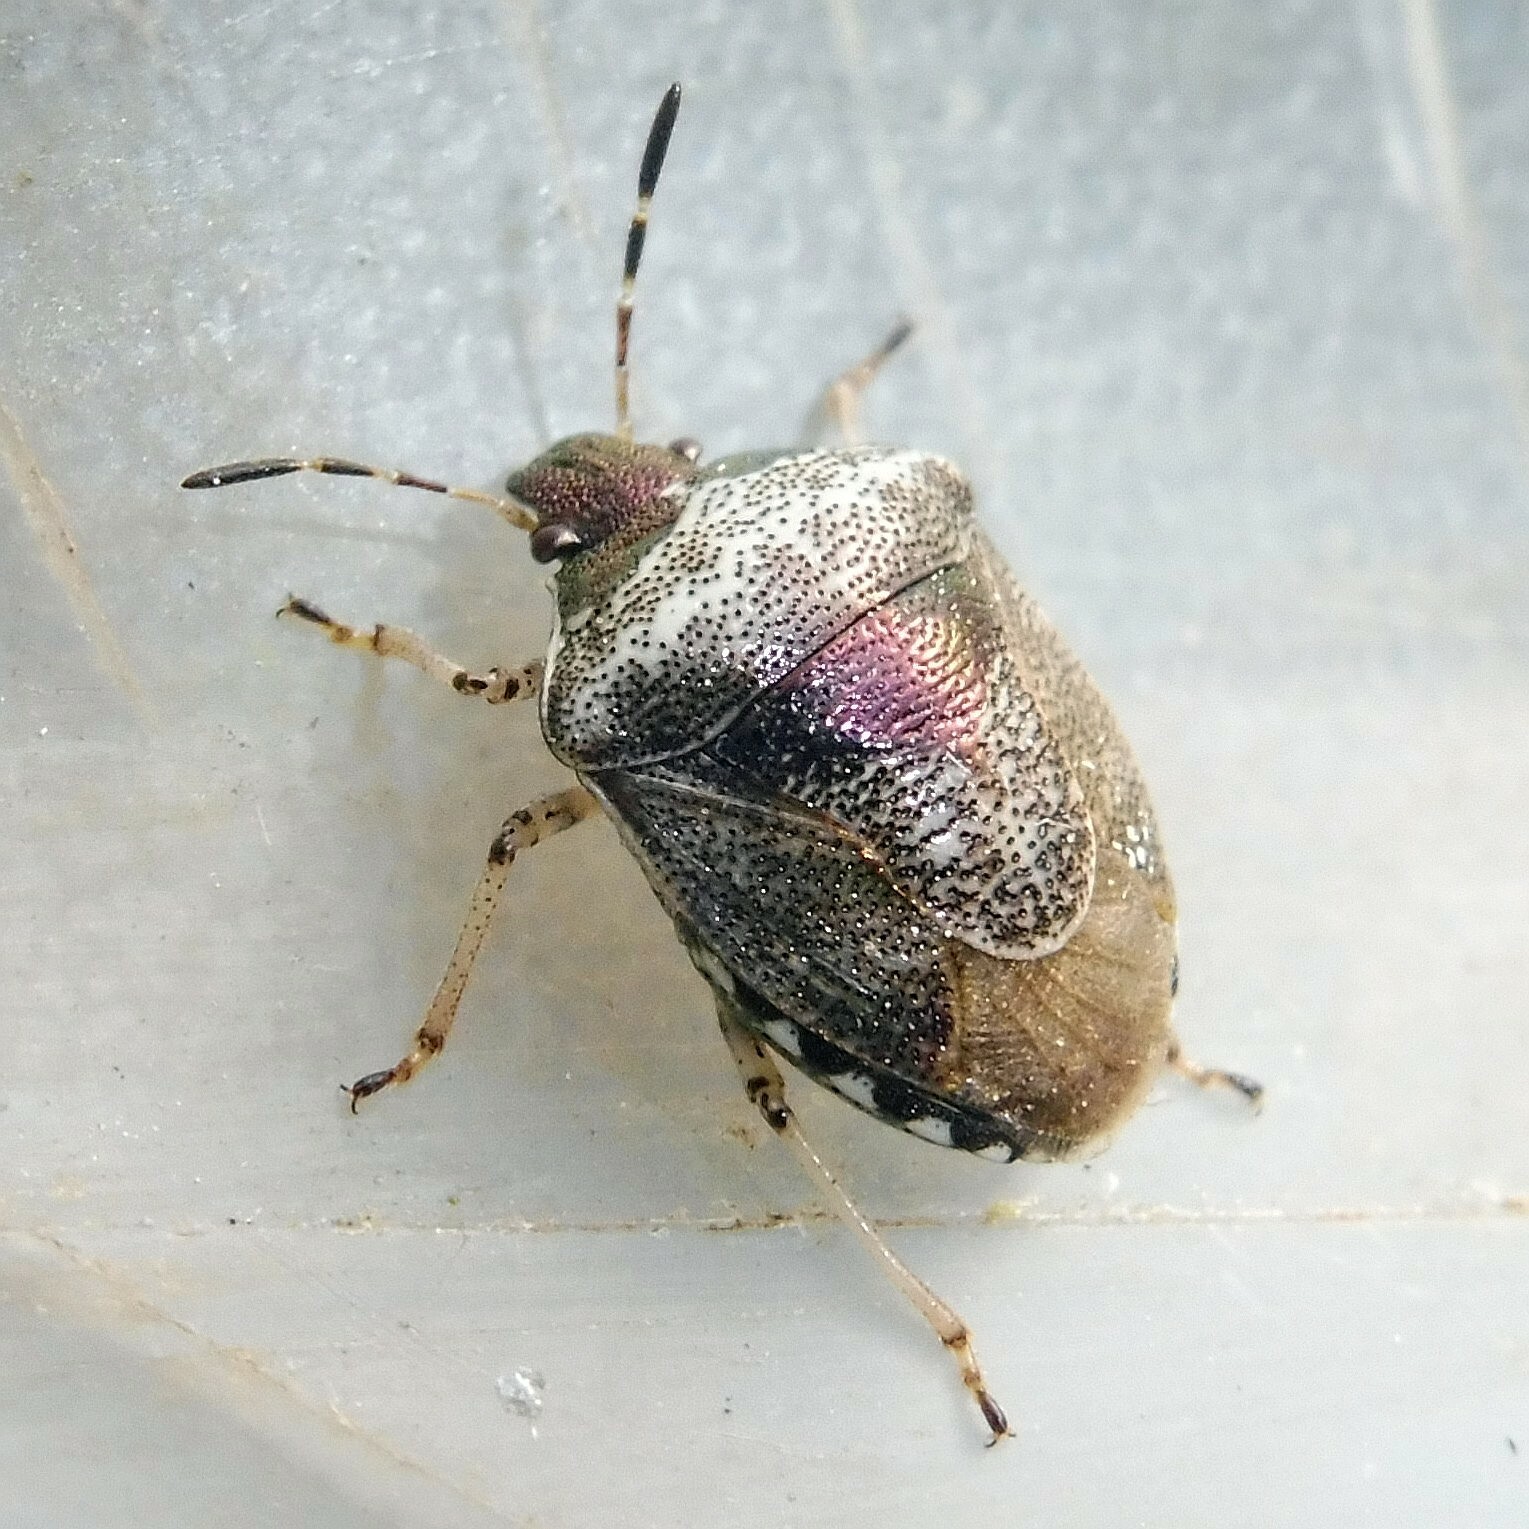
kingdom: Animalia
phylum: Arthropoda
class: Insecta
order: Hemiptera
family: Pentatomidae
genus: Eysarcoris
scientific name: Eysarcoris venustissimus
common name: Woundwort shieldbug
